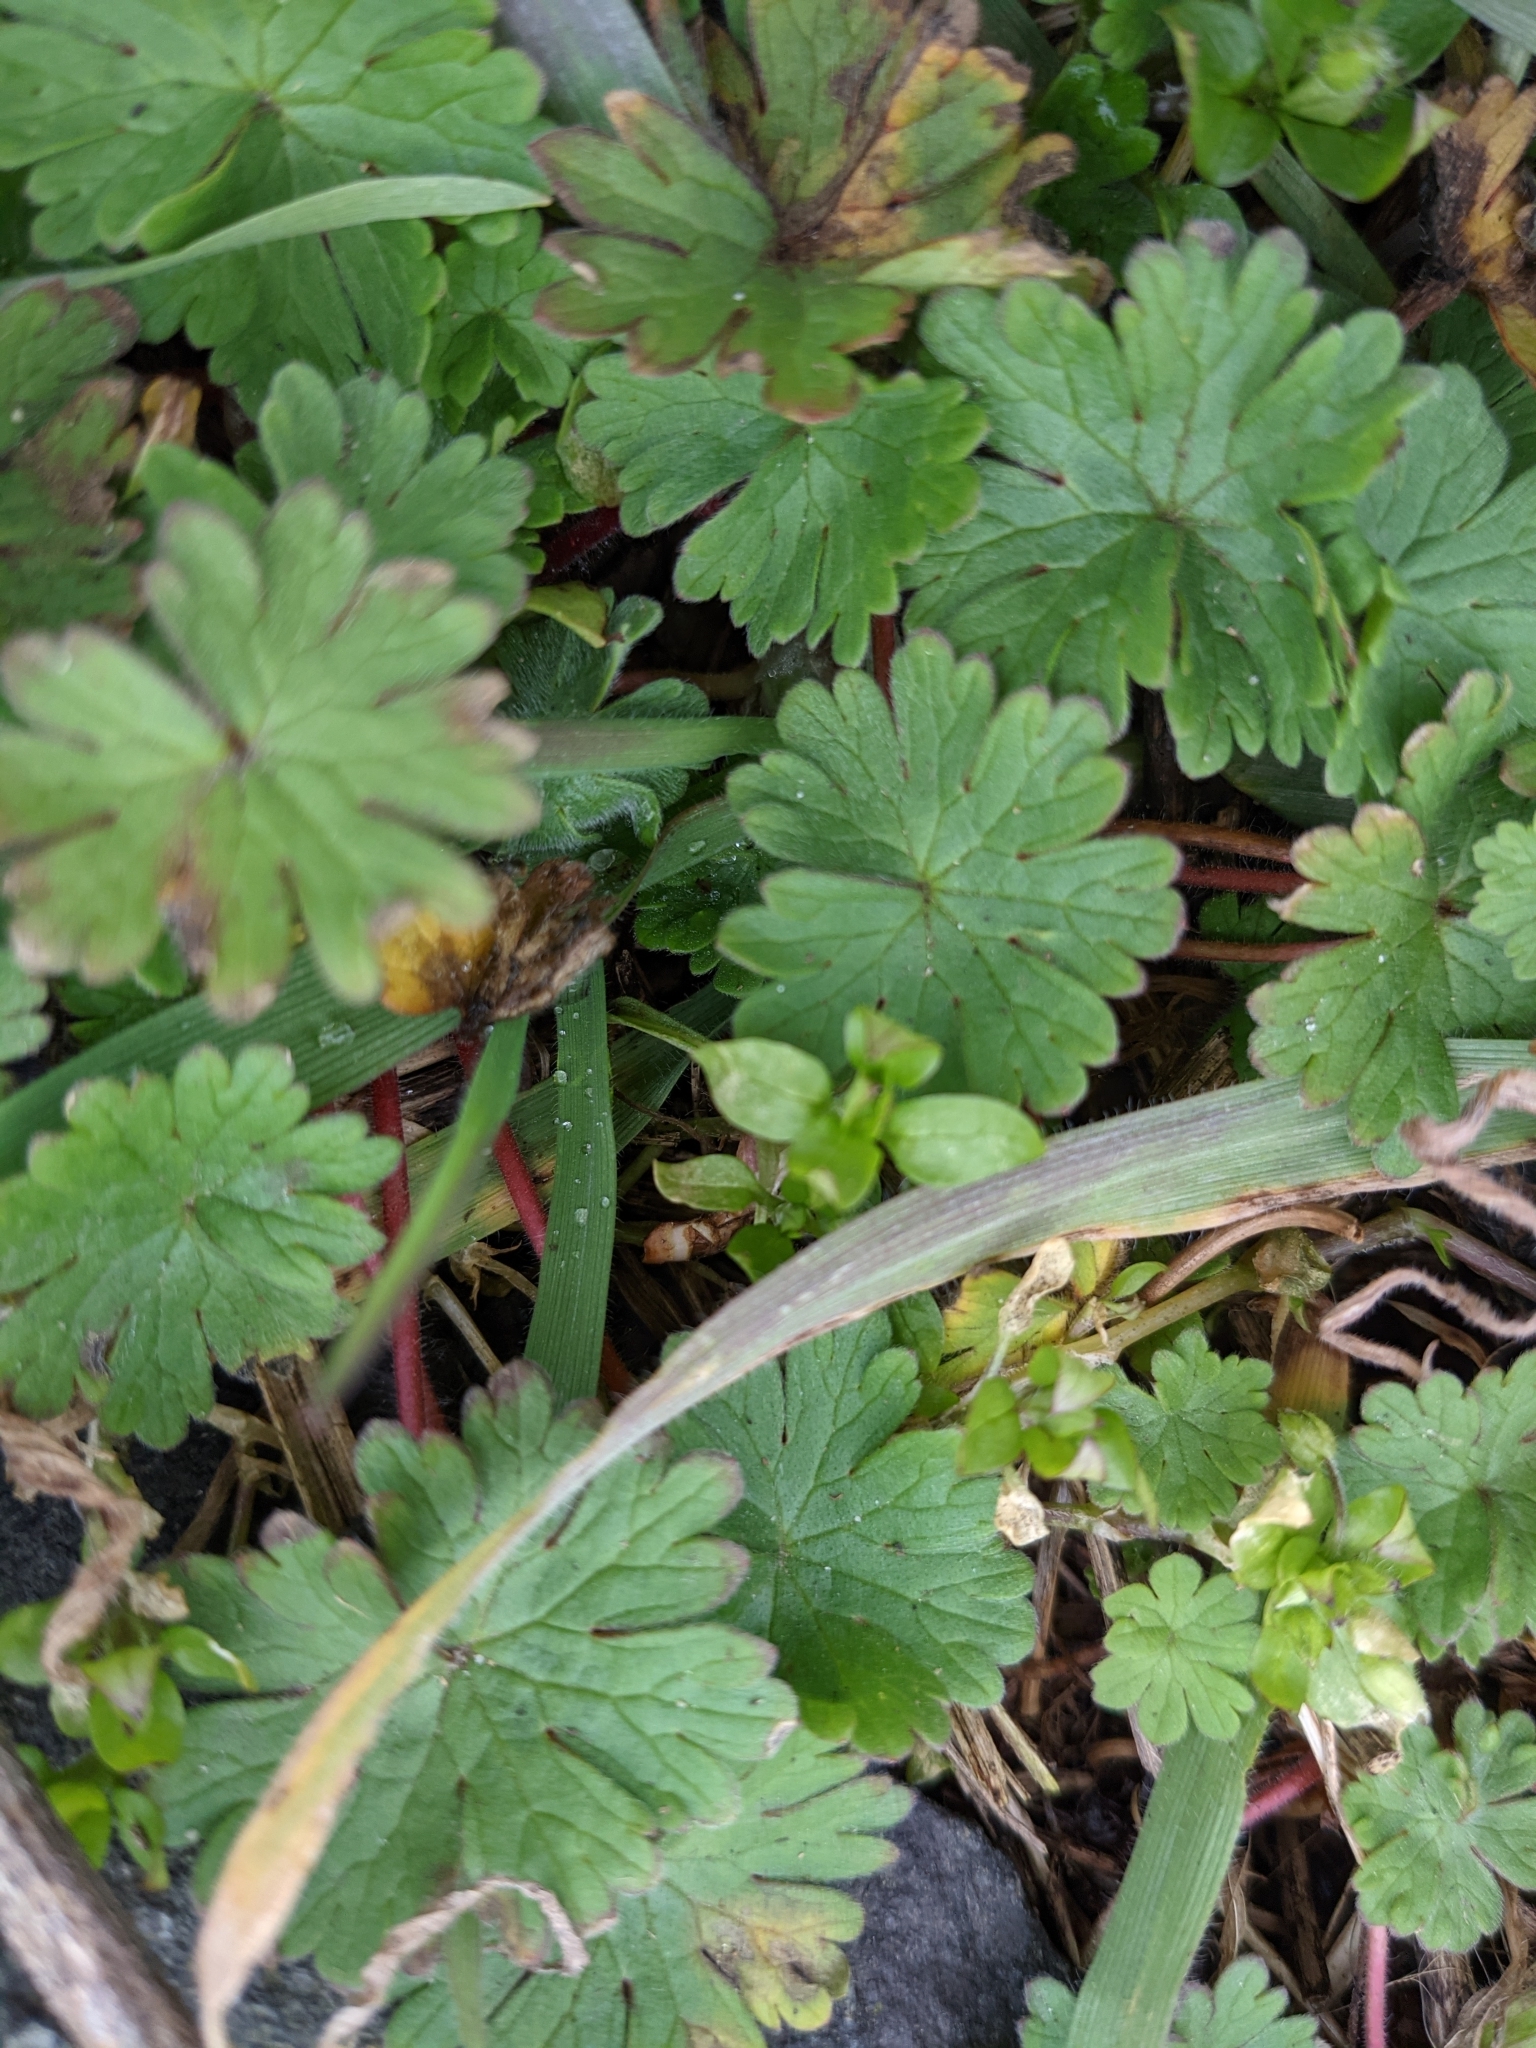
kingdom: Plantae
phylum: Tracheophyta
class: Magnoliopsida
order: Geraniales
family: Geraniaceae
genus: Geranium
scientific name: Geranium molle
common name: Dove's-foot crane's-bill
